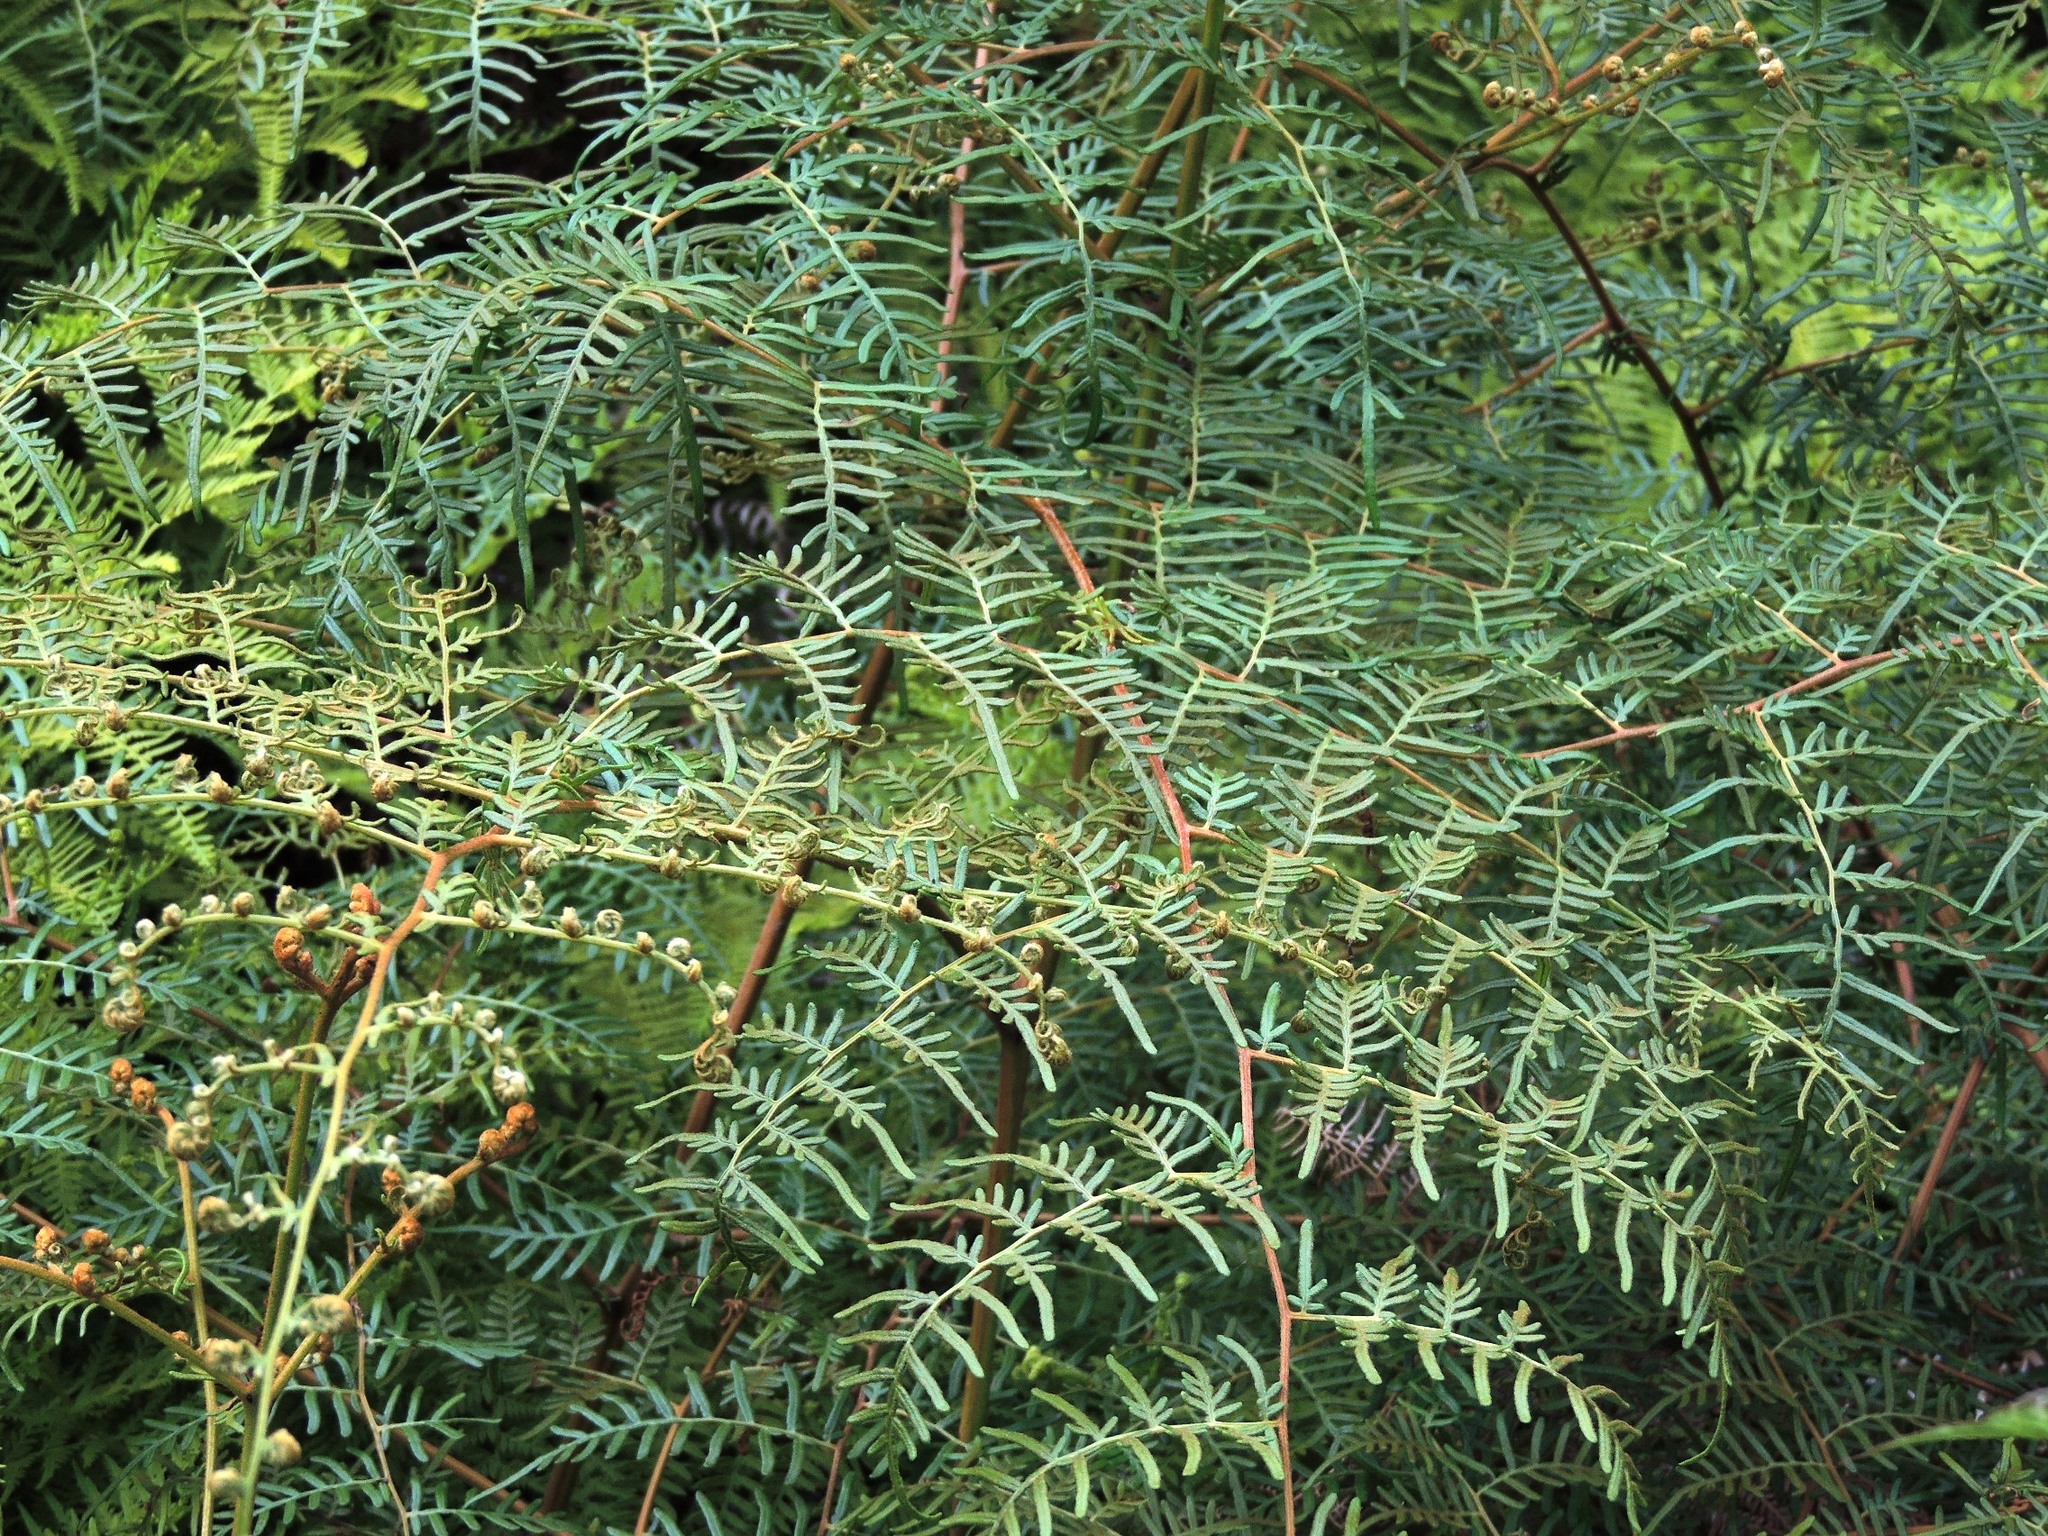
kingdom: Plantae
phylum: Tracheophyta
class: Polypodiopsida
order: Polypodiales
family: Dennstaedtiaceae
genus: Pteridium
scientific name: Pteridium esculentum
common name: Bracken fern
